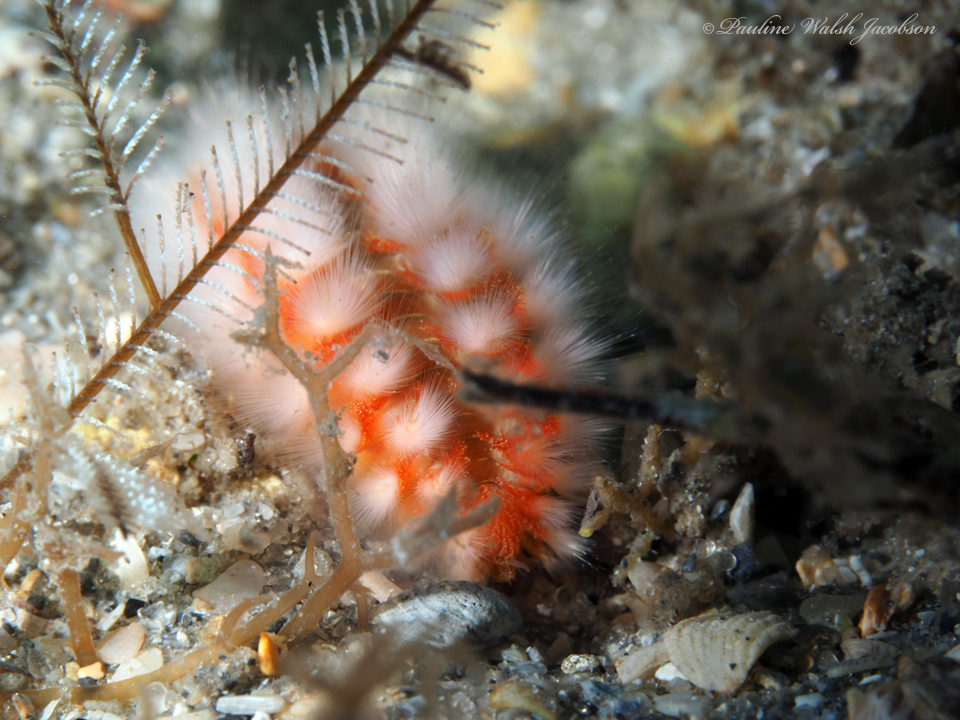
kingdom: Animalia
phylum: Annelida
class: Polychaeta
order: Amphinomida
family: Amphinomidae
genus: Hermodice
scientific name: Hermodice carunculata
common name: Bearded fireworm
